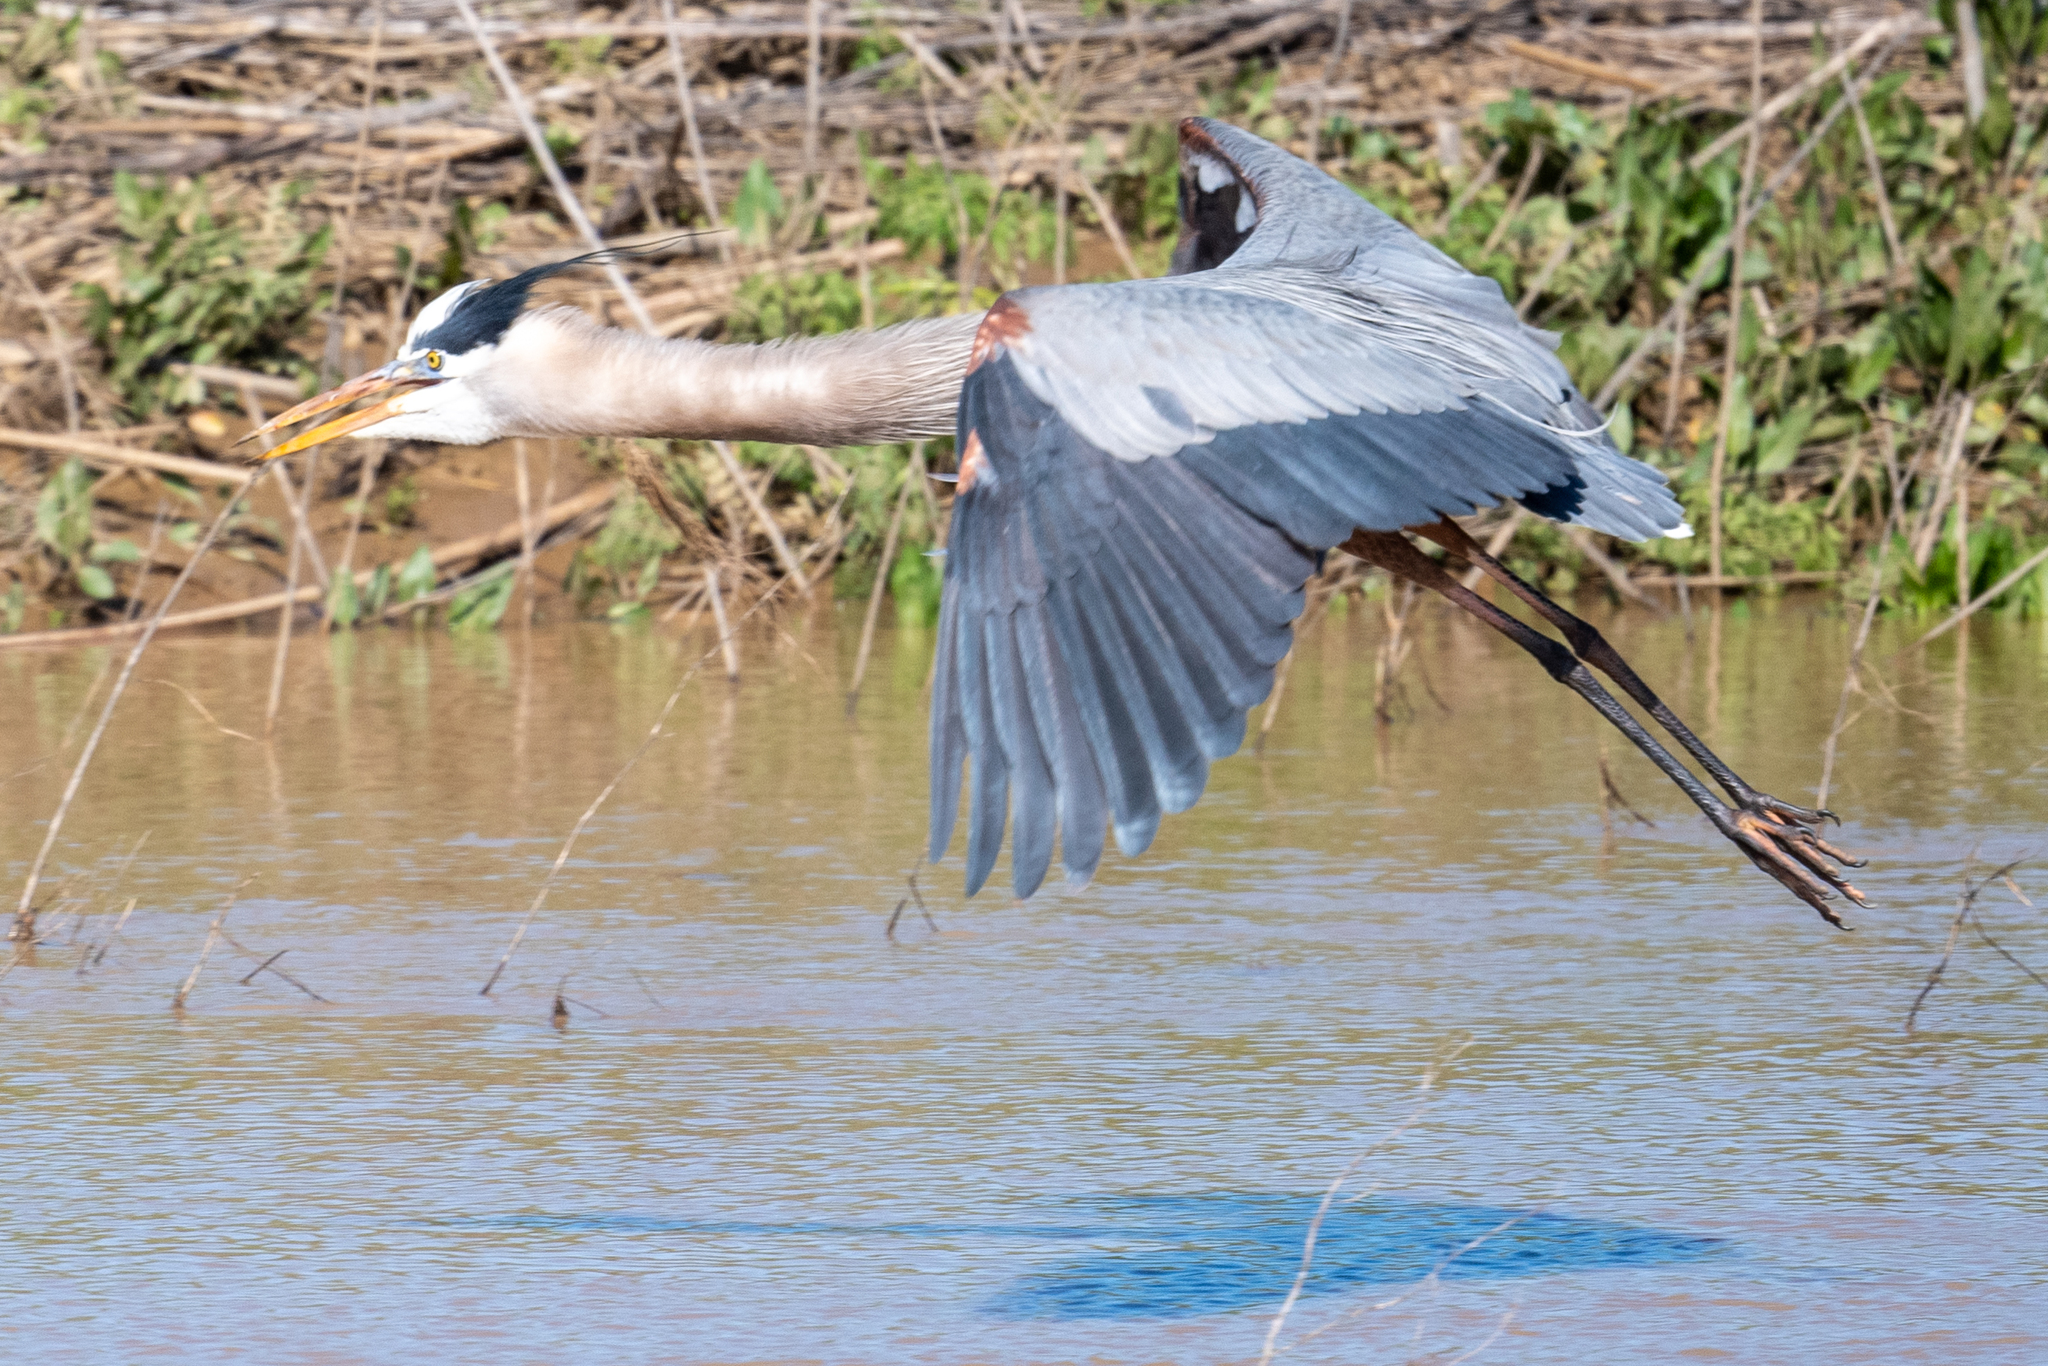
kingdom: Animalia
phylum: Chordata
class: Aves
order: Pelecaniformes
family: Ardeidae
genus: Ardea
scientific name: Ardea herodias
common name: Great blue heron
